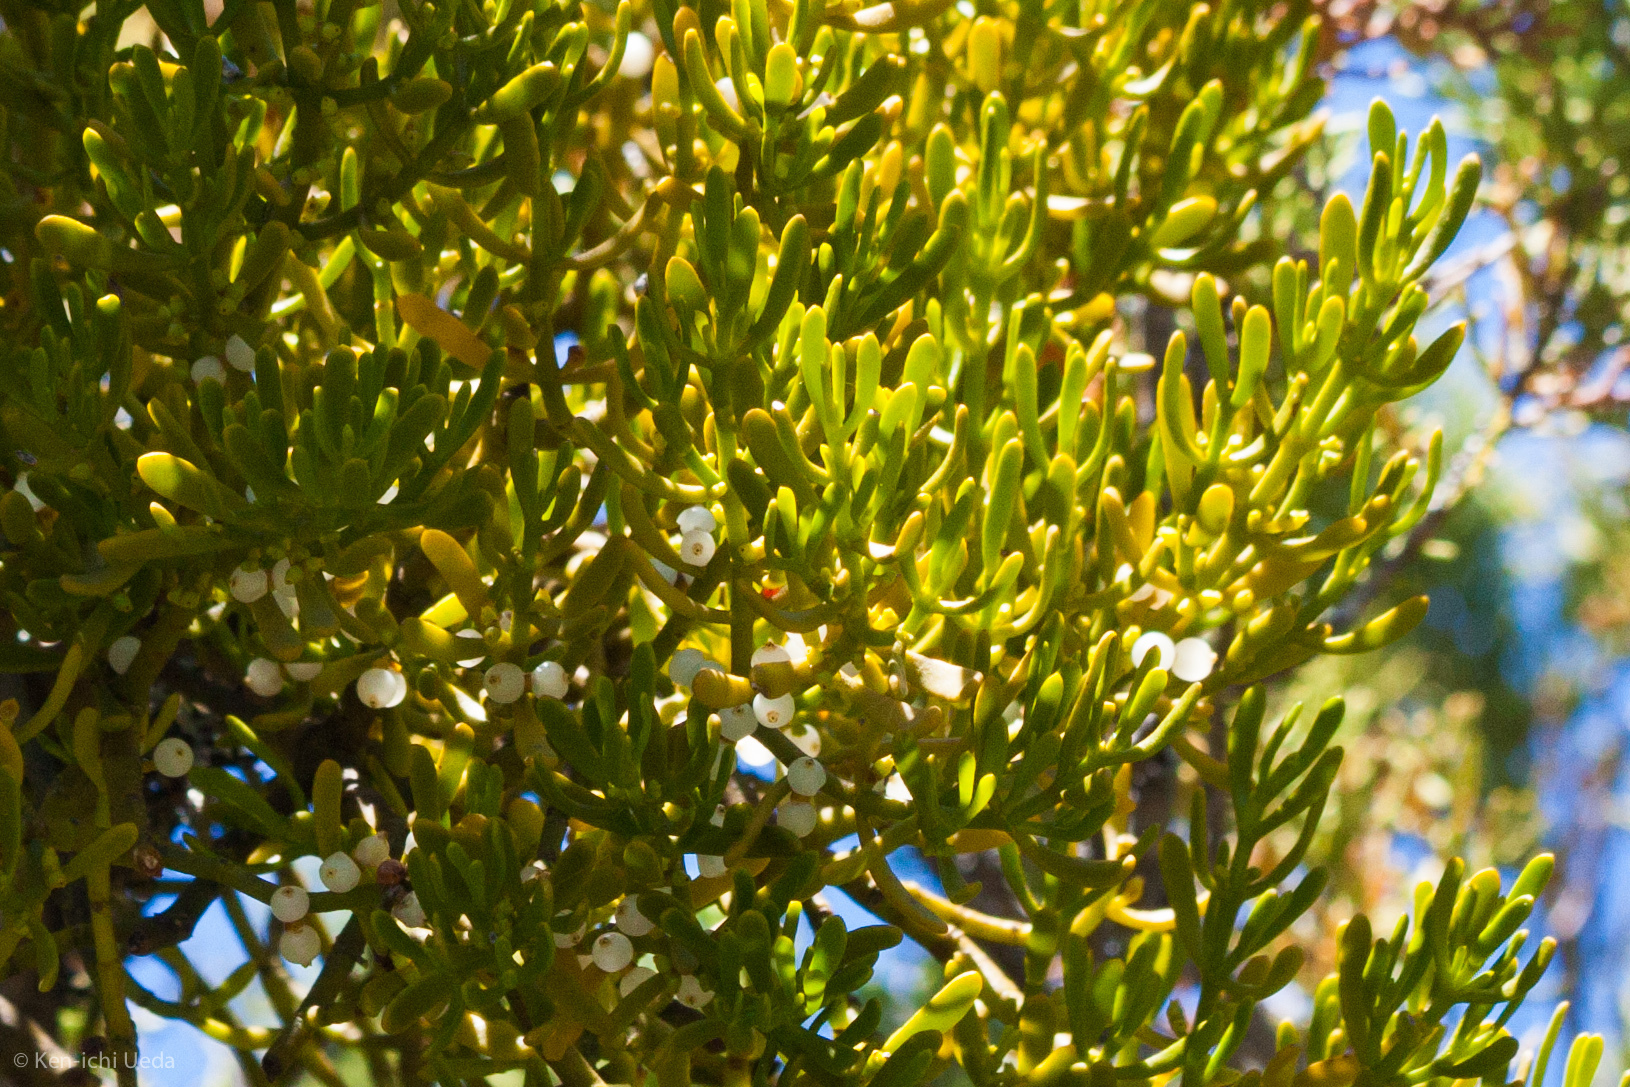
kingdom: Plantae
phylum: Tracheophyta
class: Magnoliopsida
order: Santalales
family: Viscaceae
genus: Phoradendron
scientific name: Phoradendron bolleanum
